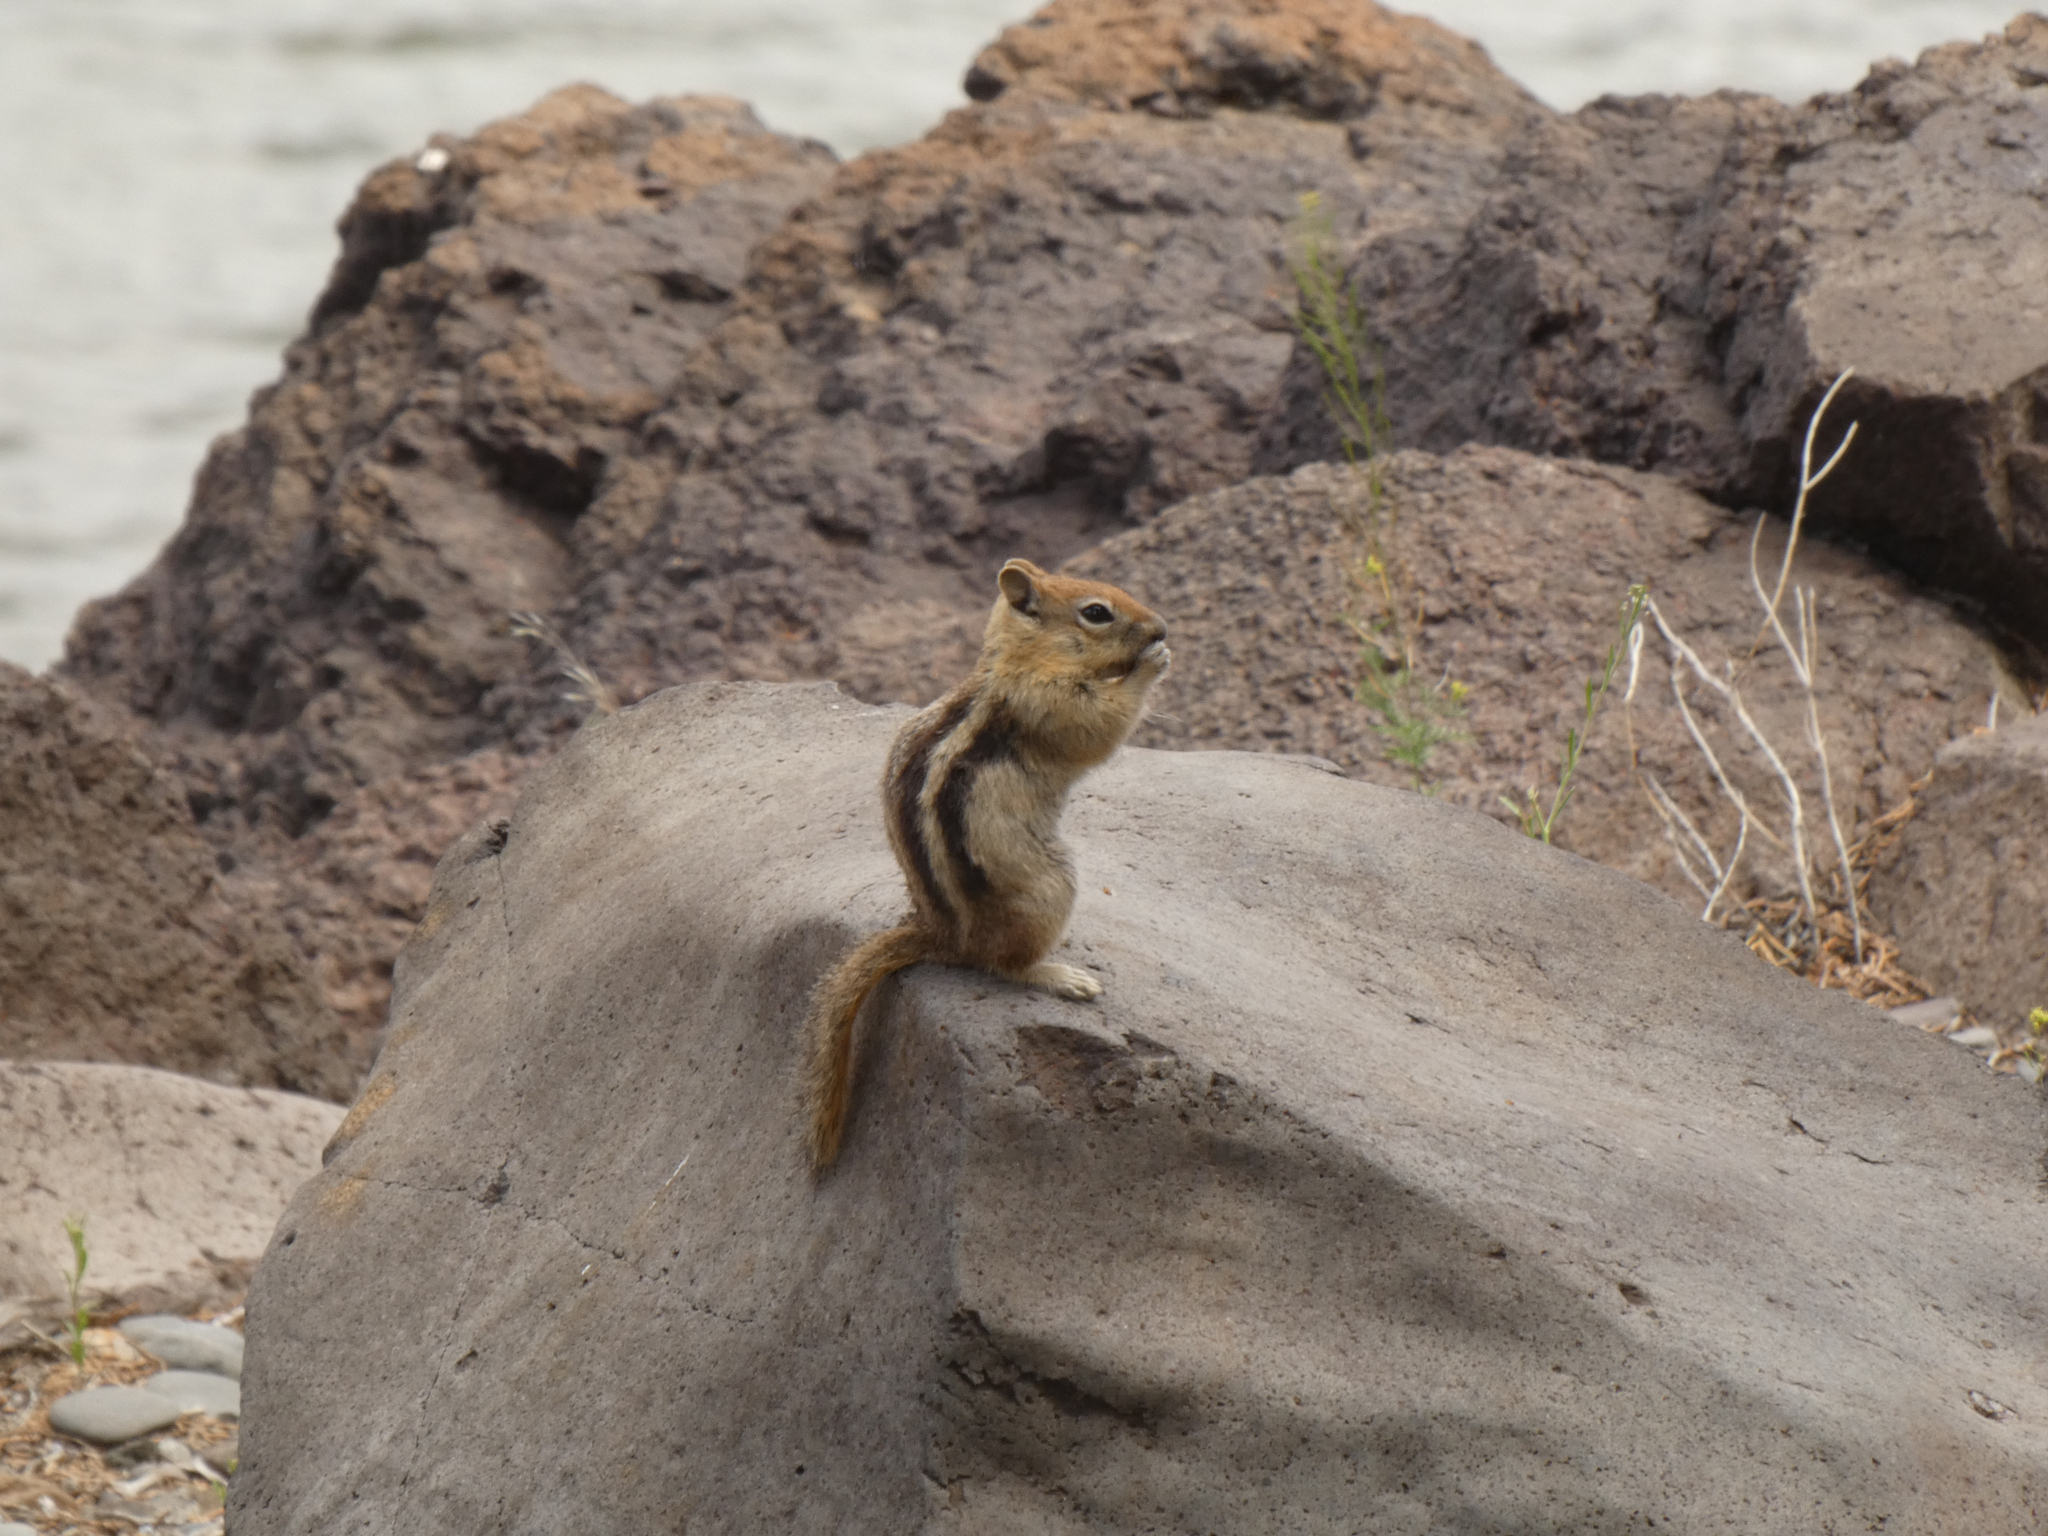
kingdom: Animalia
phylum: Chordata
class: Mammalia
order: Rodentia
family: Sciuridae
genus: Callospermophilus
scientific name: Callospermophilus lateralis
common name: Golden-mantled ground squirrel
